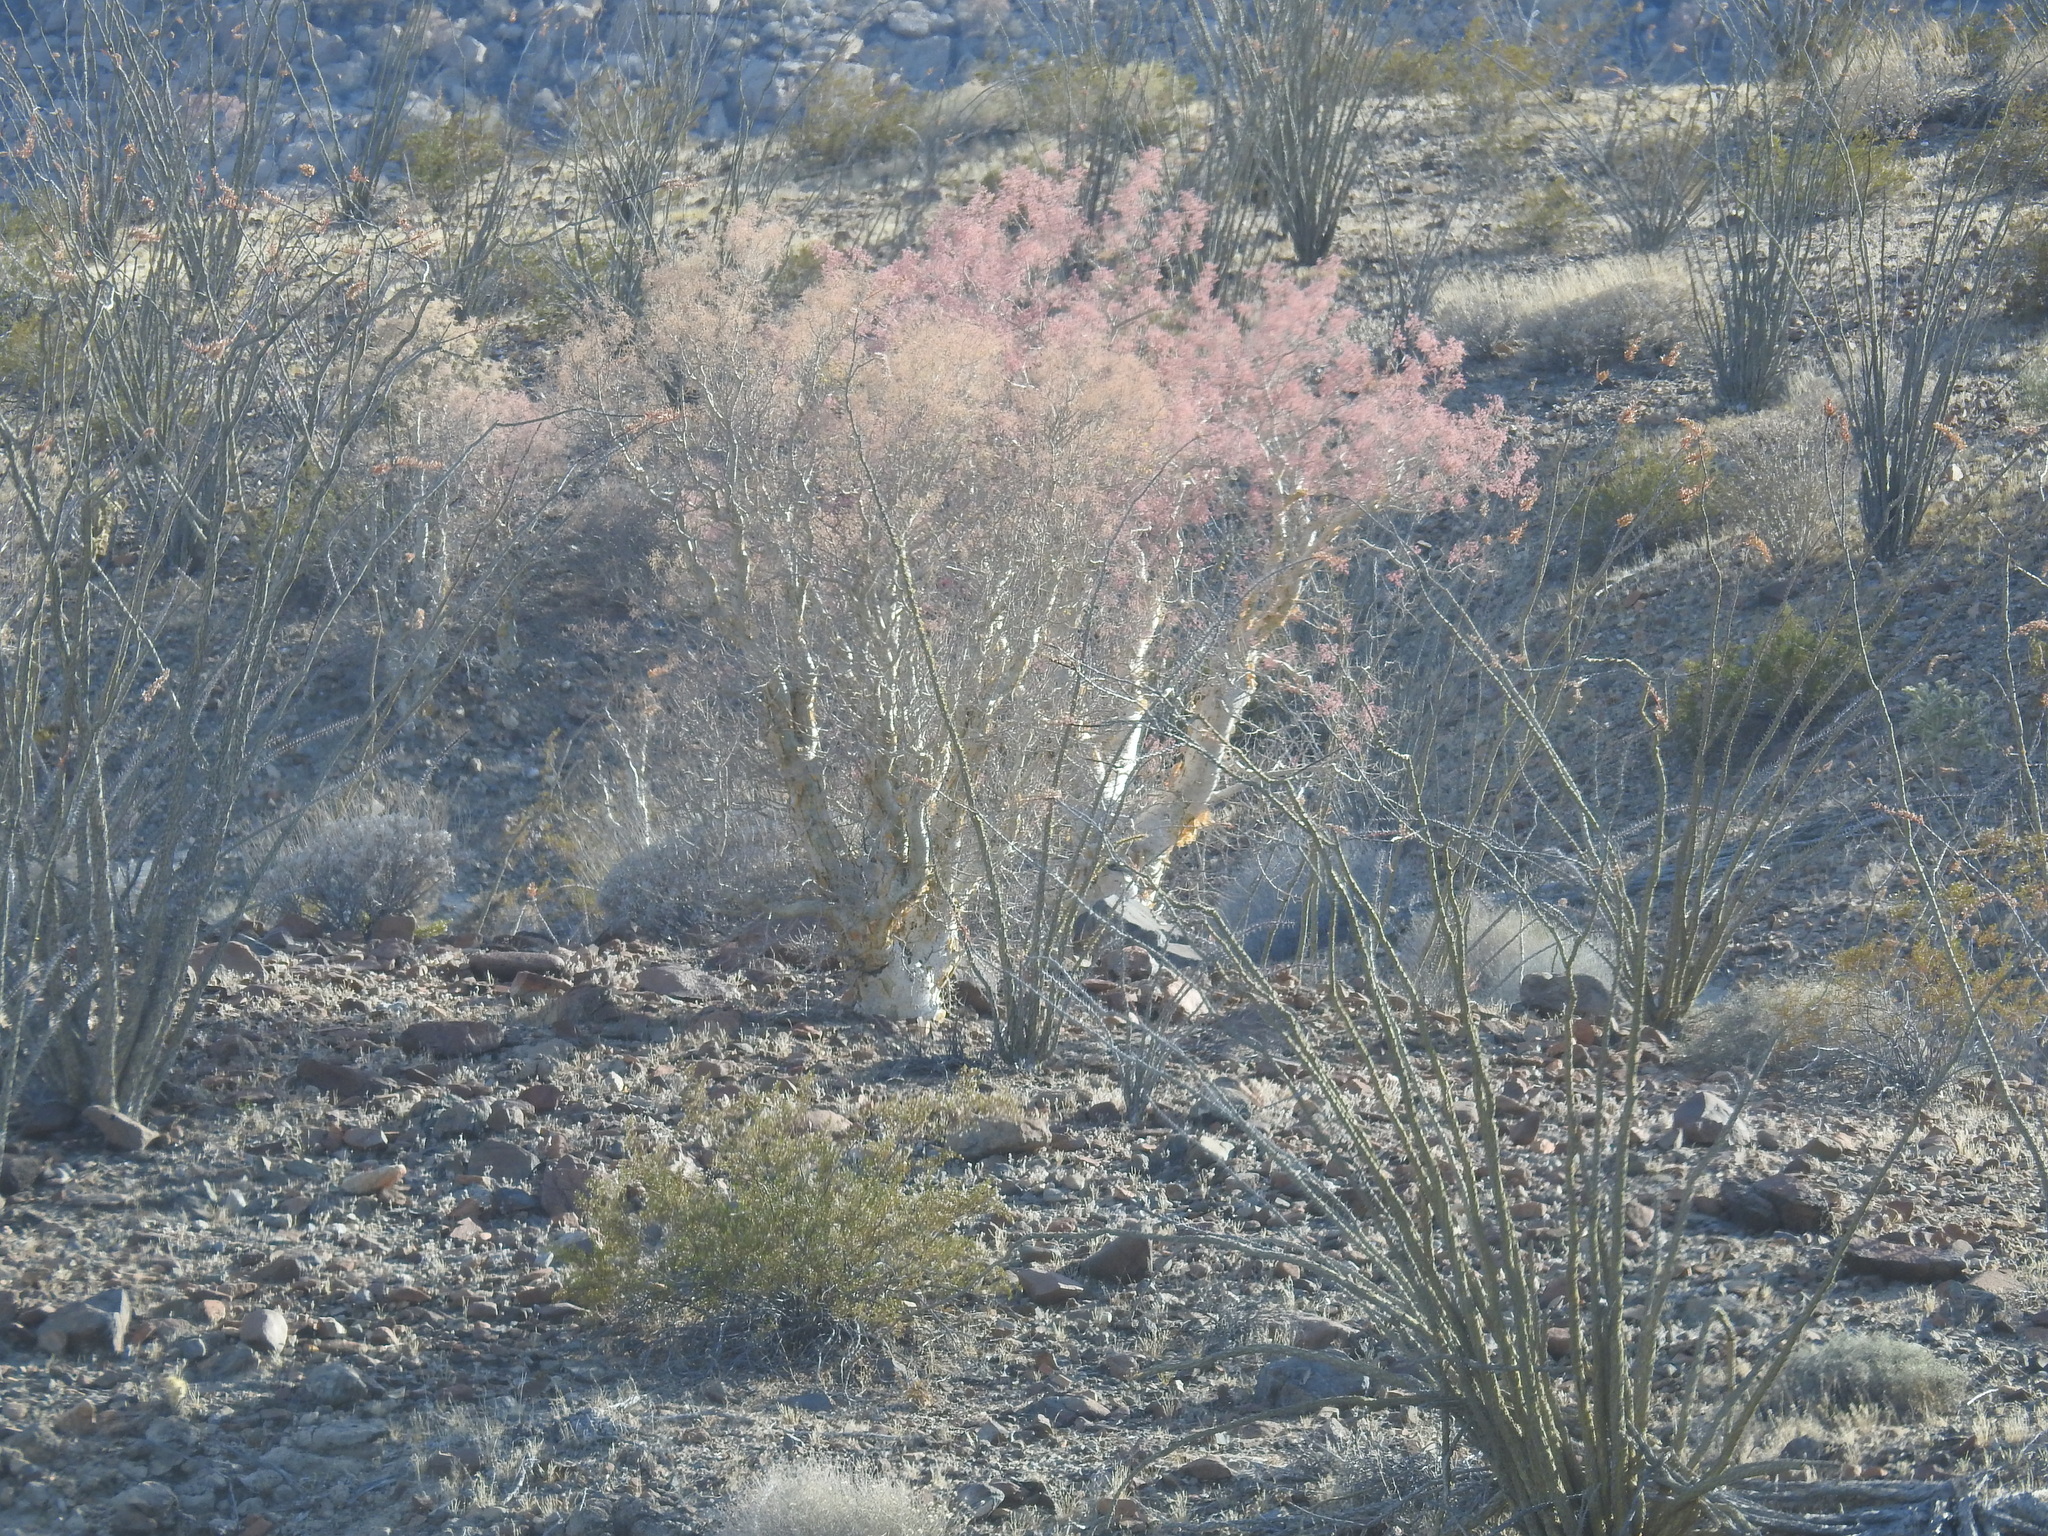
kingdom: Plantae
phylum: Tracheophyta
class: Magnoliopsida
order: Sapindales
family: Anacardiaceae
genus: Pachycormus
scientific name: Pachycormus discolor
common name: Succulent elephant trees
